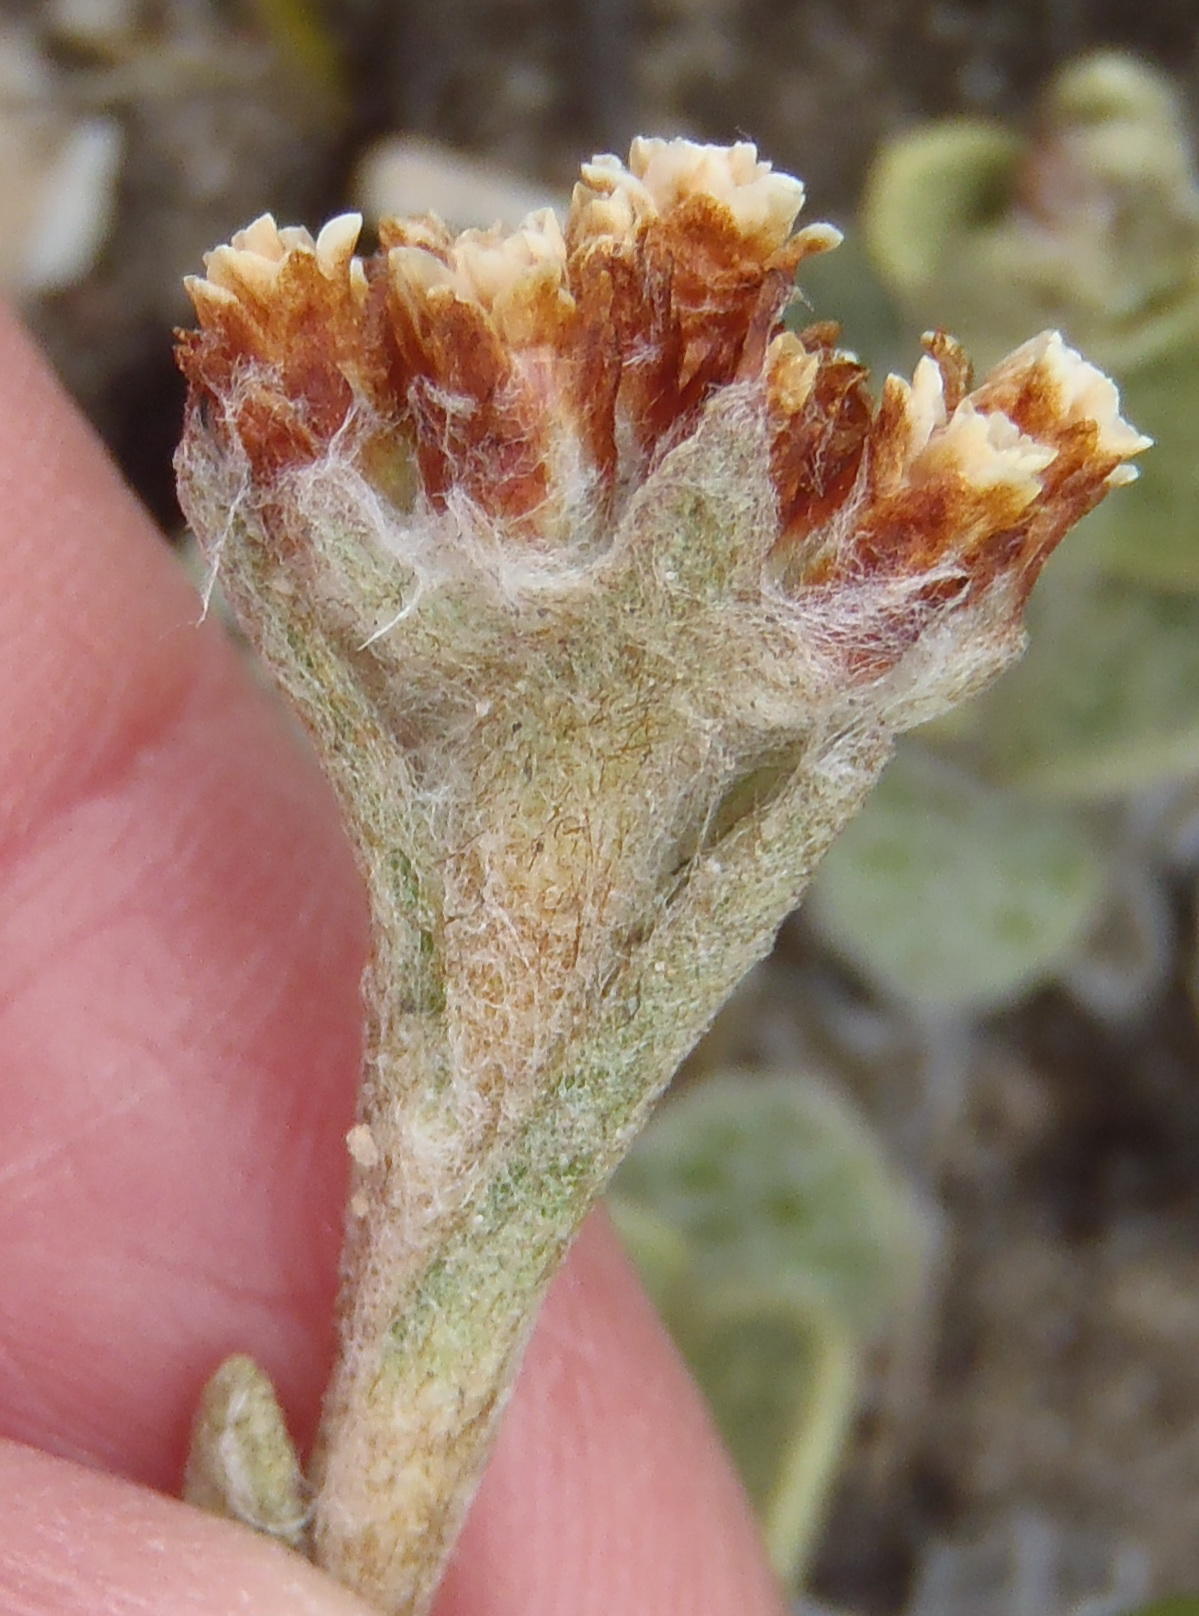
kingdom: Plantae
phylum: Tracheophyta
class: Magnoliopsida
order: Asterales
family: Asteraceae
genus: Helichrysum
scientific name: Helichrysum rotundifolium
